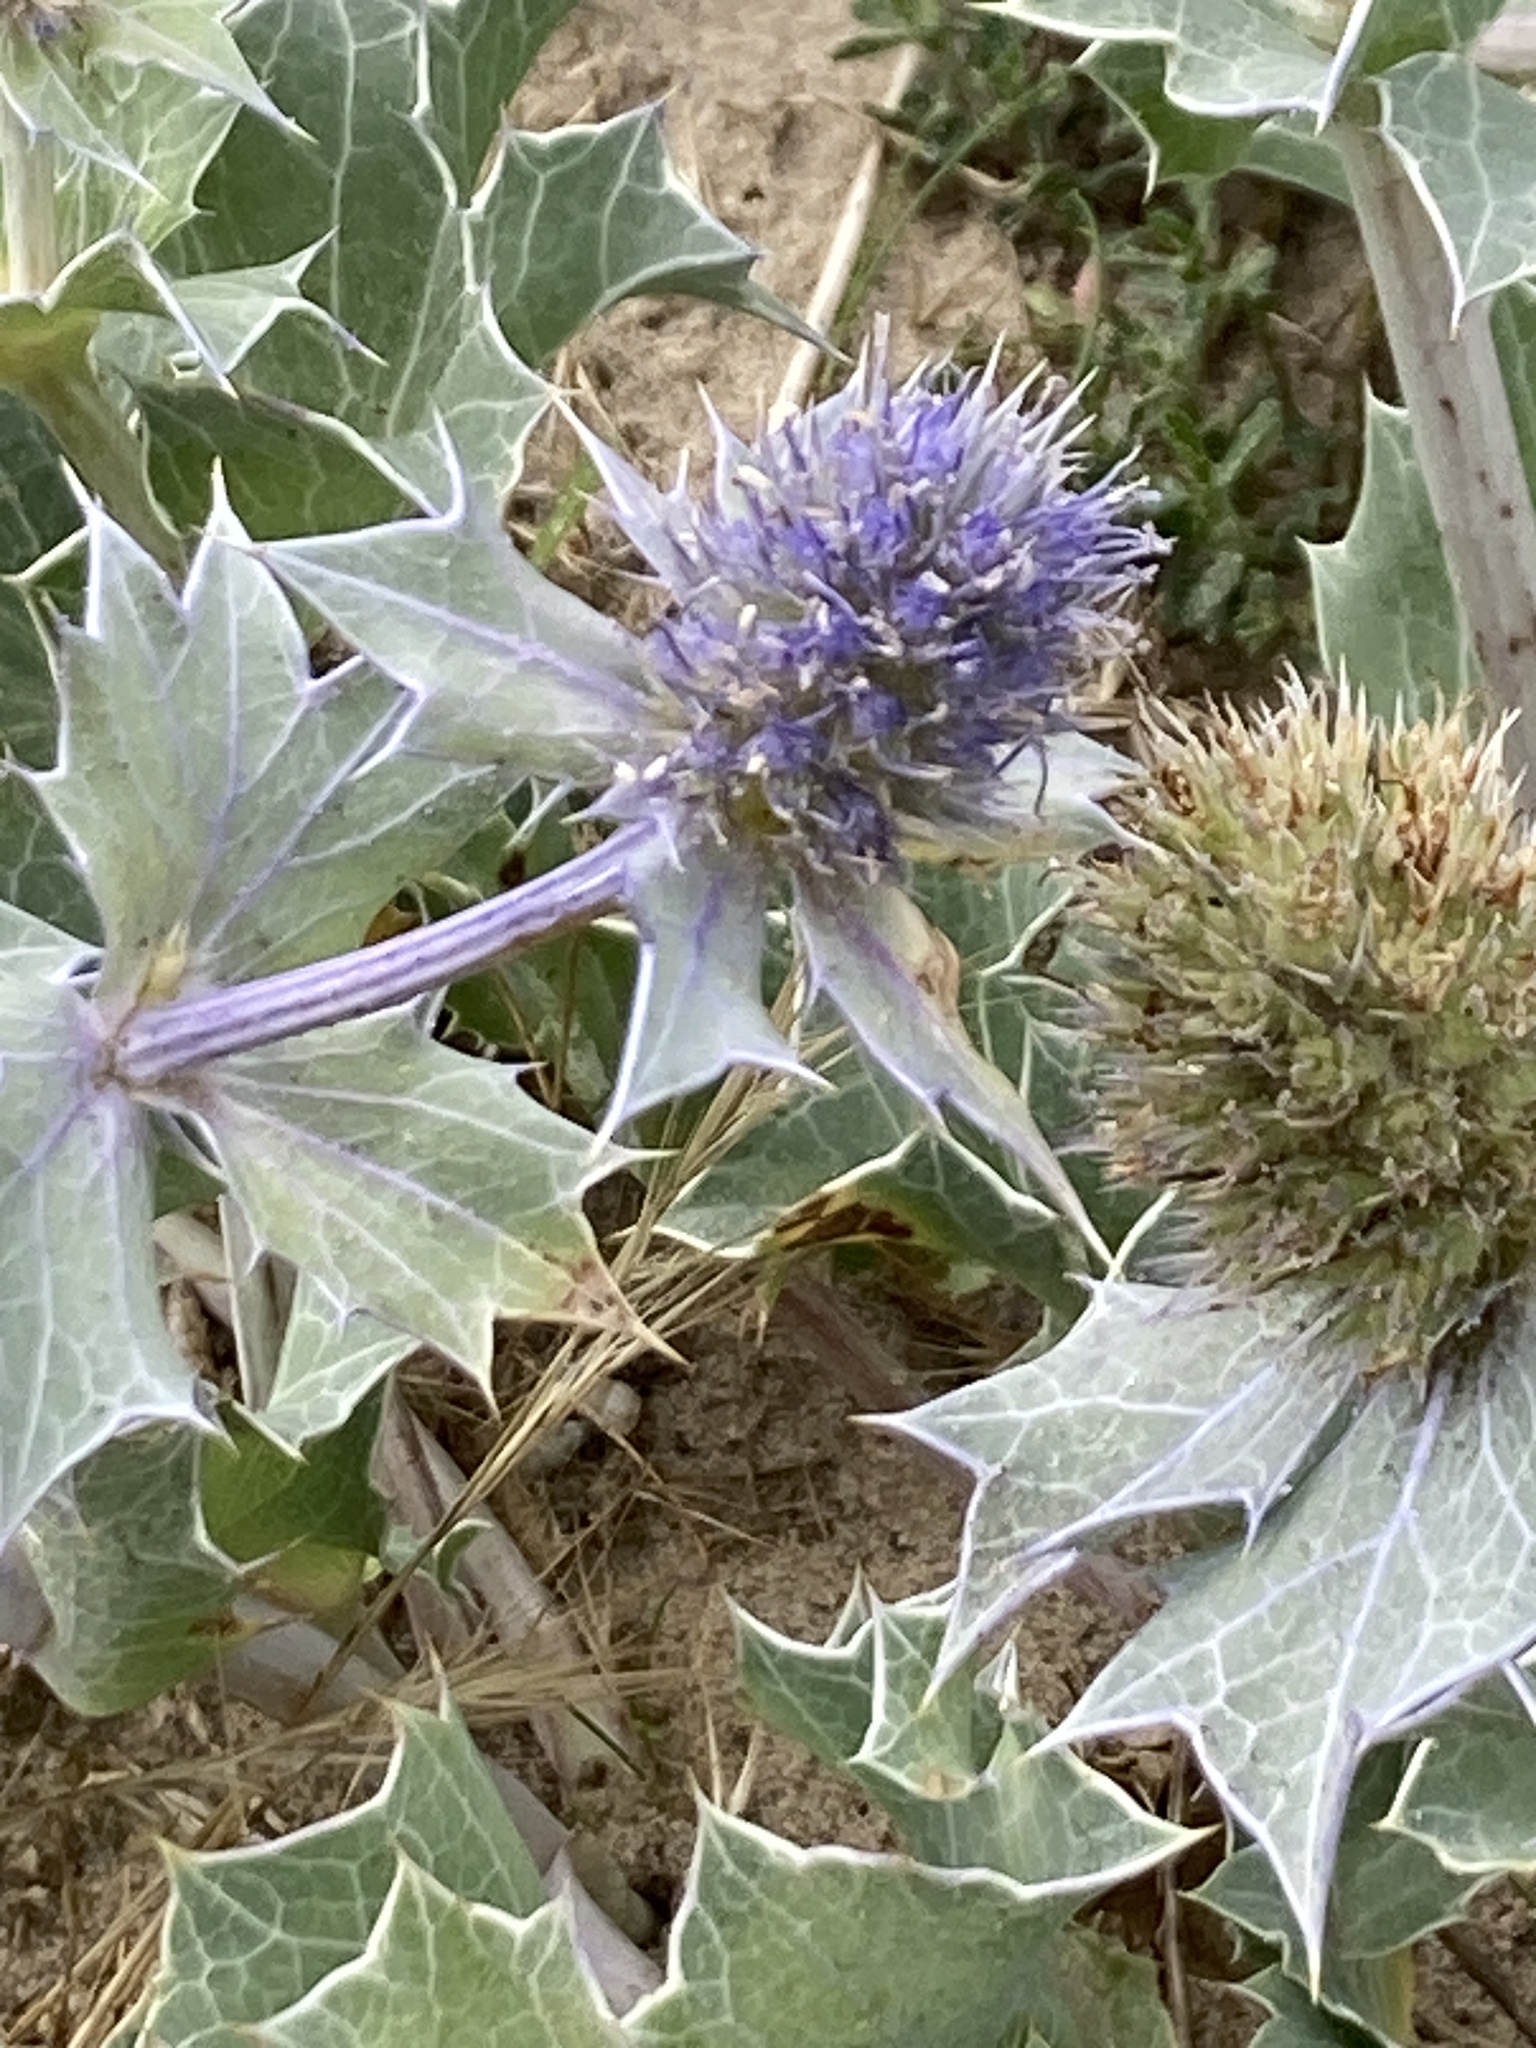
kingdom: Plantae
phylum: Tracheophyta
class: Magnoliopsida
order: Apiales
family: Apiaceae
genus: Eryngium
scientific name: Eryngium maritimum
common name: Sea-holly
